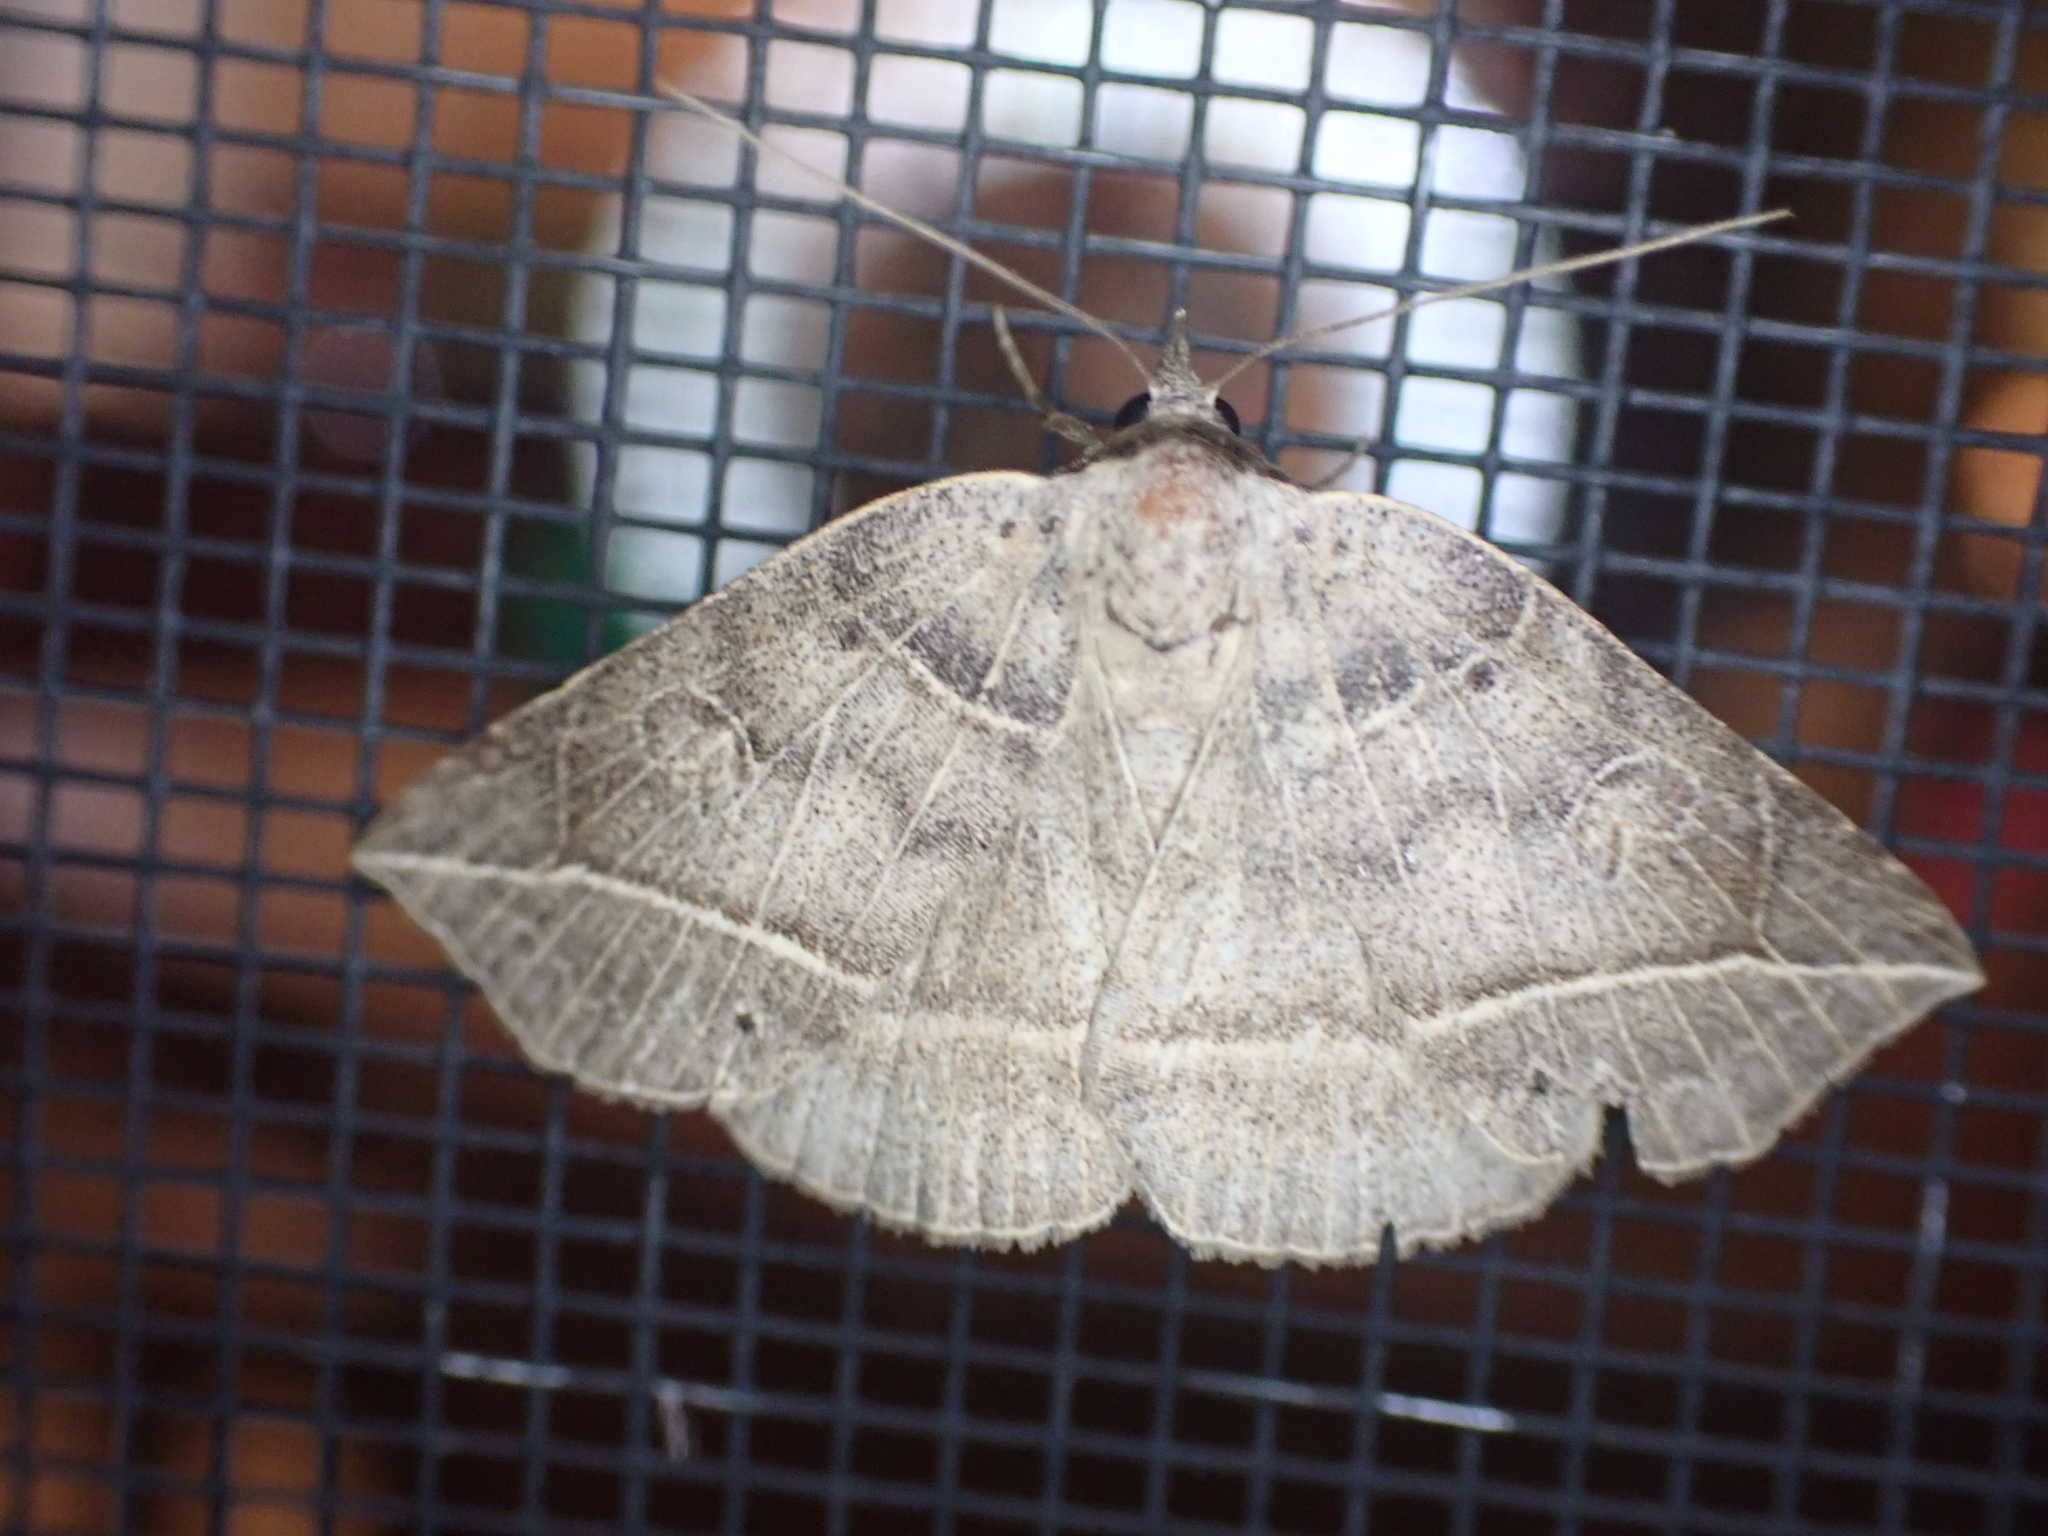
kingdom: Animalia
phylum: Arthropoda
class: Insecta
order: Lepidoptera
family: Erebidae
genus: Isogona
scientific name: Isogona tenuis
